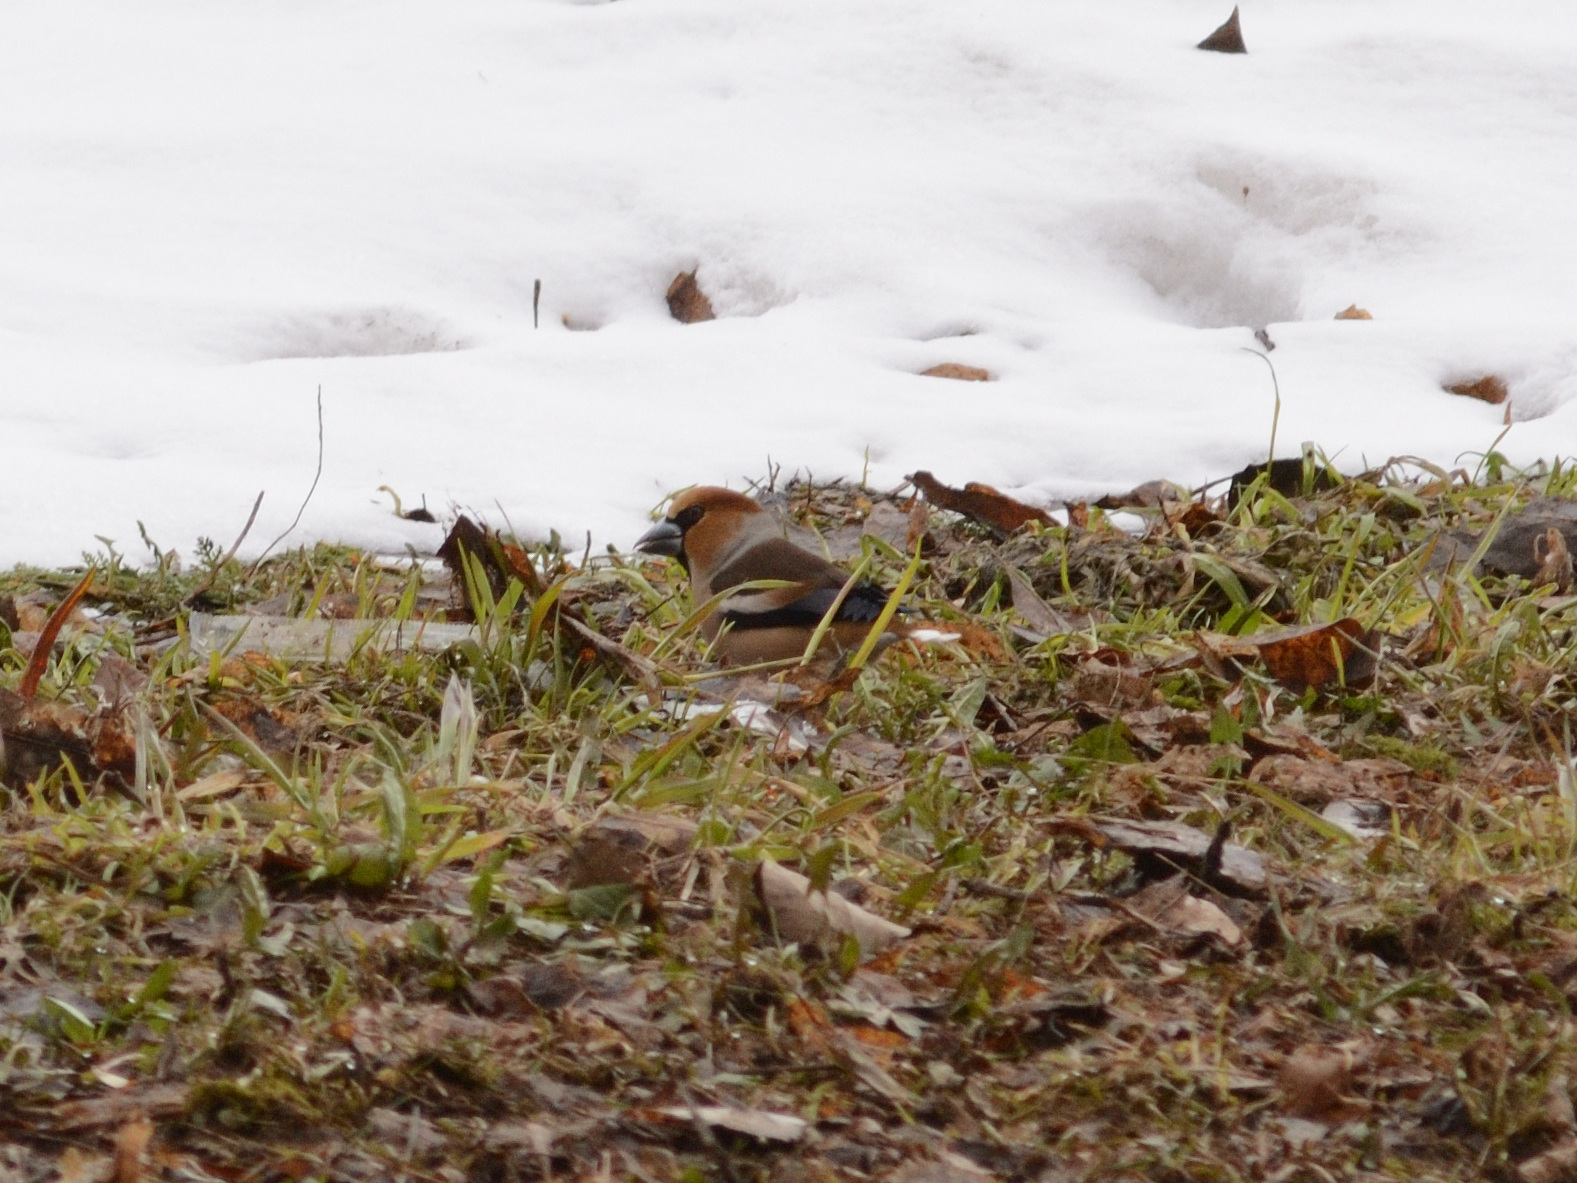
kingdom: Animalia
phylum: Chordata
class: Aves
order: Passeriformes
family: Fringillidae
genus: Coccothraustes
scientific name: Coccothraustes coccothraustes
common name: Hawfinch
